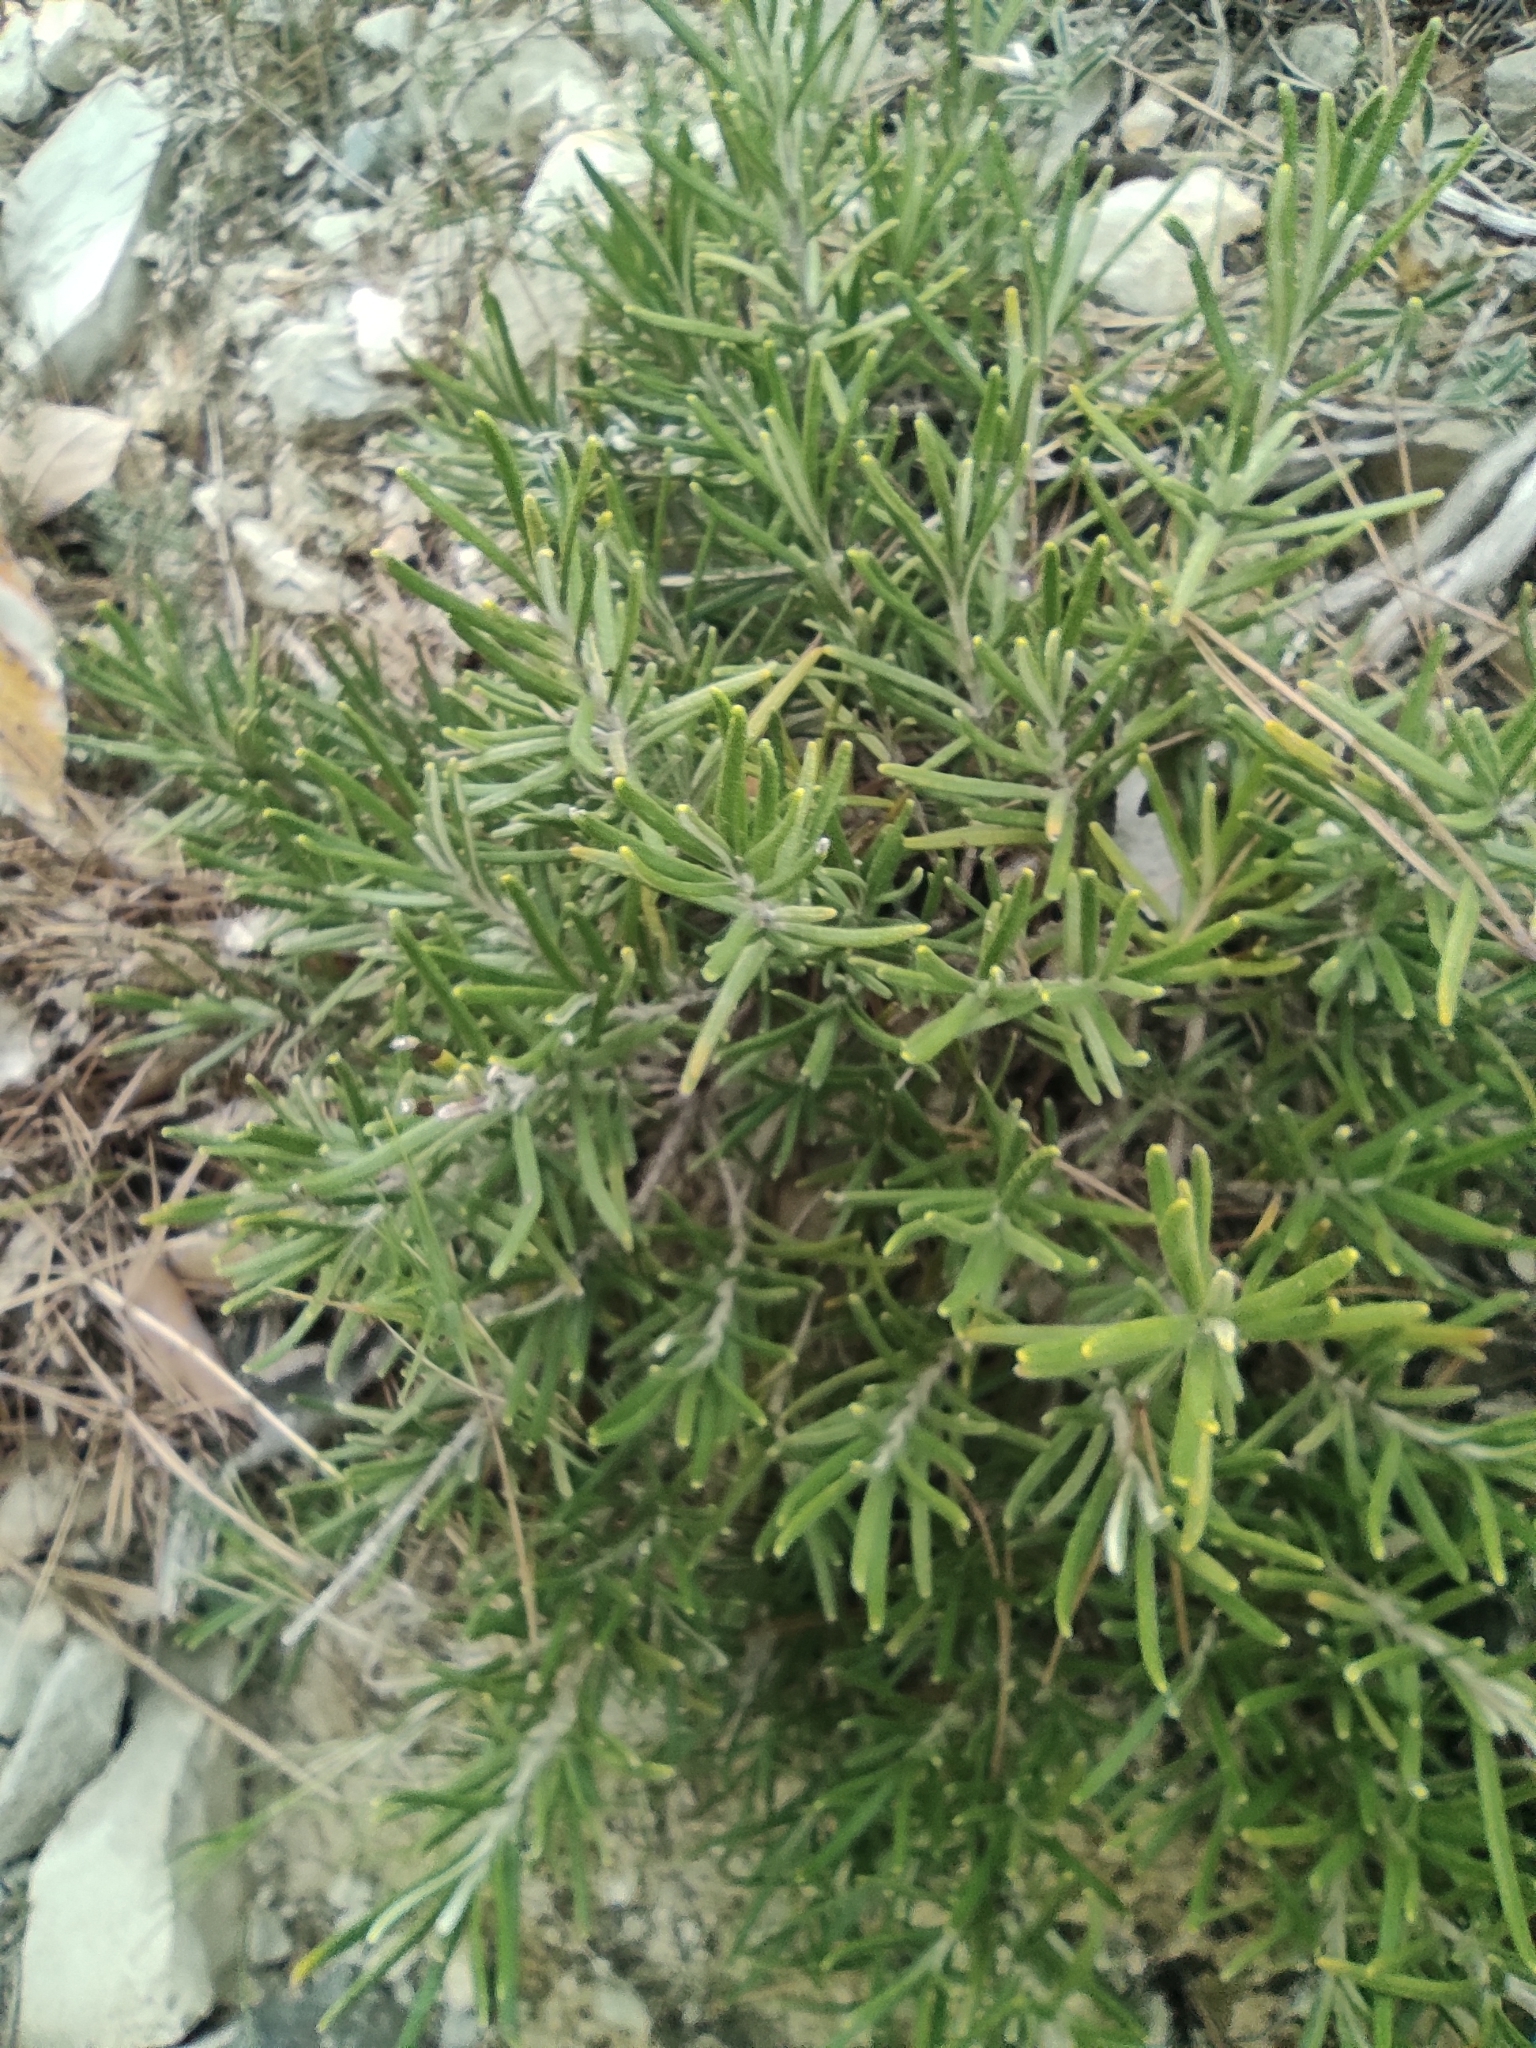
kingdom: Plantae
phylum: Tracheophyta
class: Magnoliopsida
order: Lamiales
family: Lamiaceae
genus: Salvia
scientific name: Salvia rosmarinus
